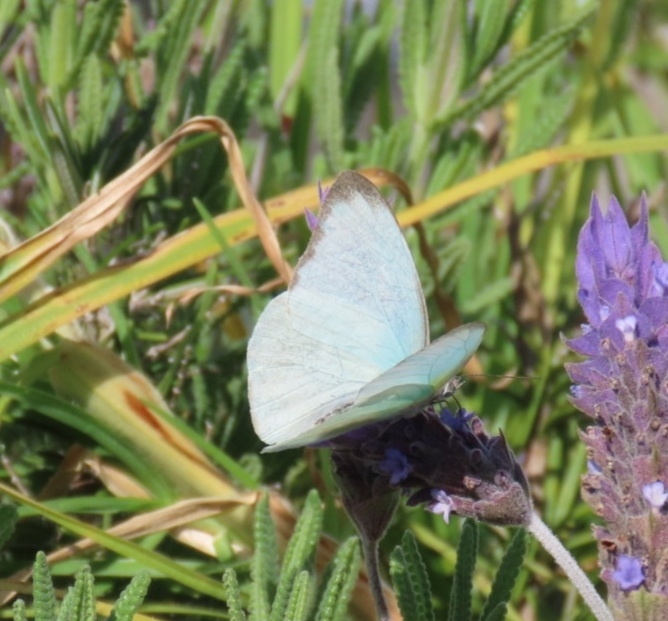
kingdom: Animalia
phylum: Arthropoda
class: Insecta
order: Lepidoptera
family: Pieridae
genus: Glutophrissa
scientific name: Glutophrissa drusilla
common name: Florida white
